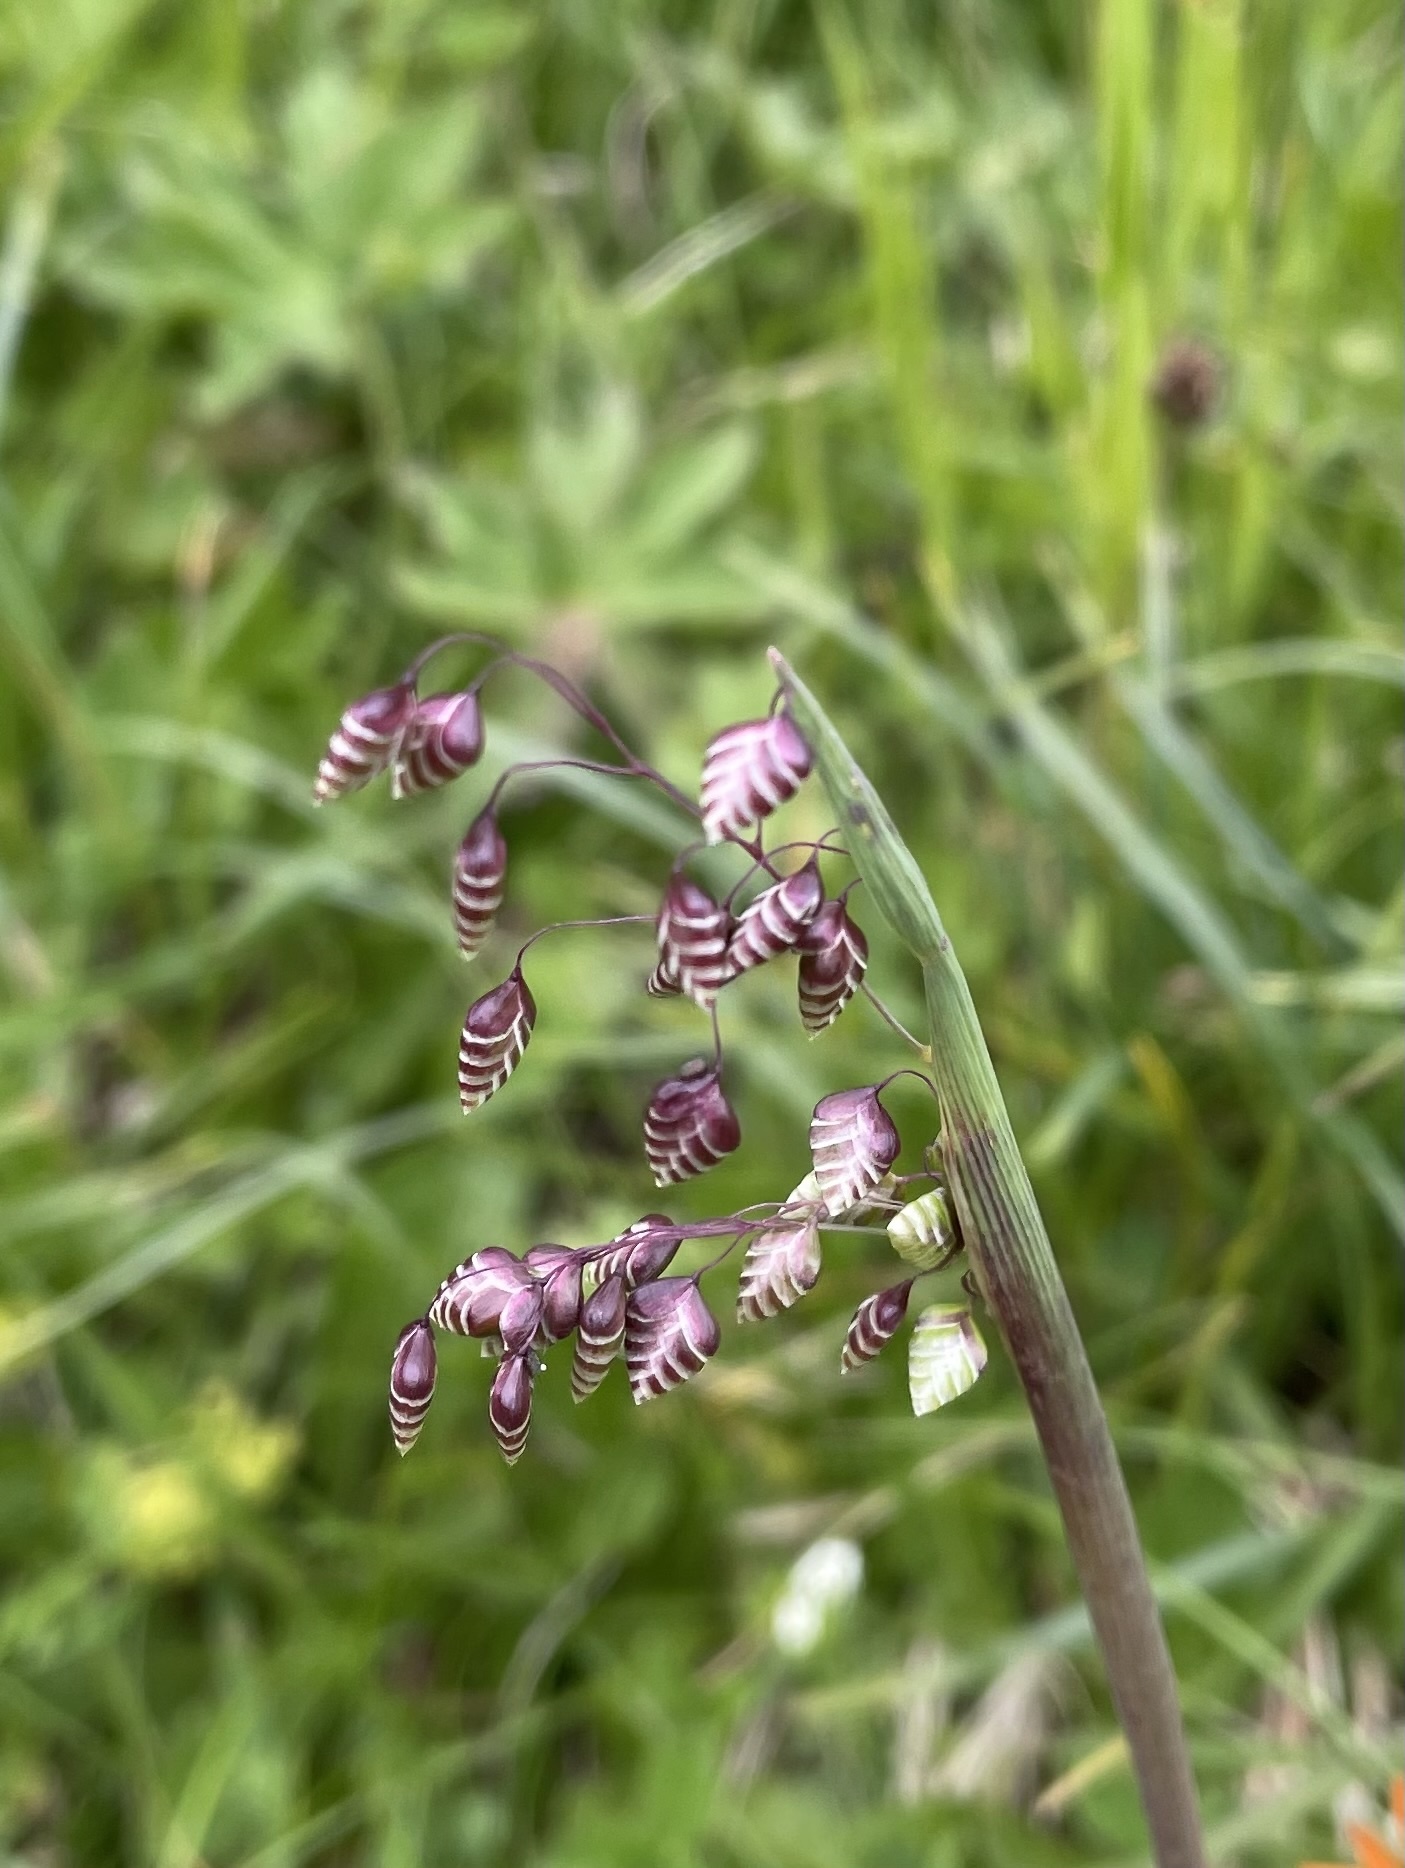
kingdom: Plantae
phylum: Tracheophyta
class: Liliopsida
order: Poales
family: Poaceae
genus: Briza
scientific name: Briza media
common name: Quaking grass
